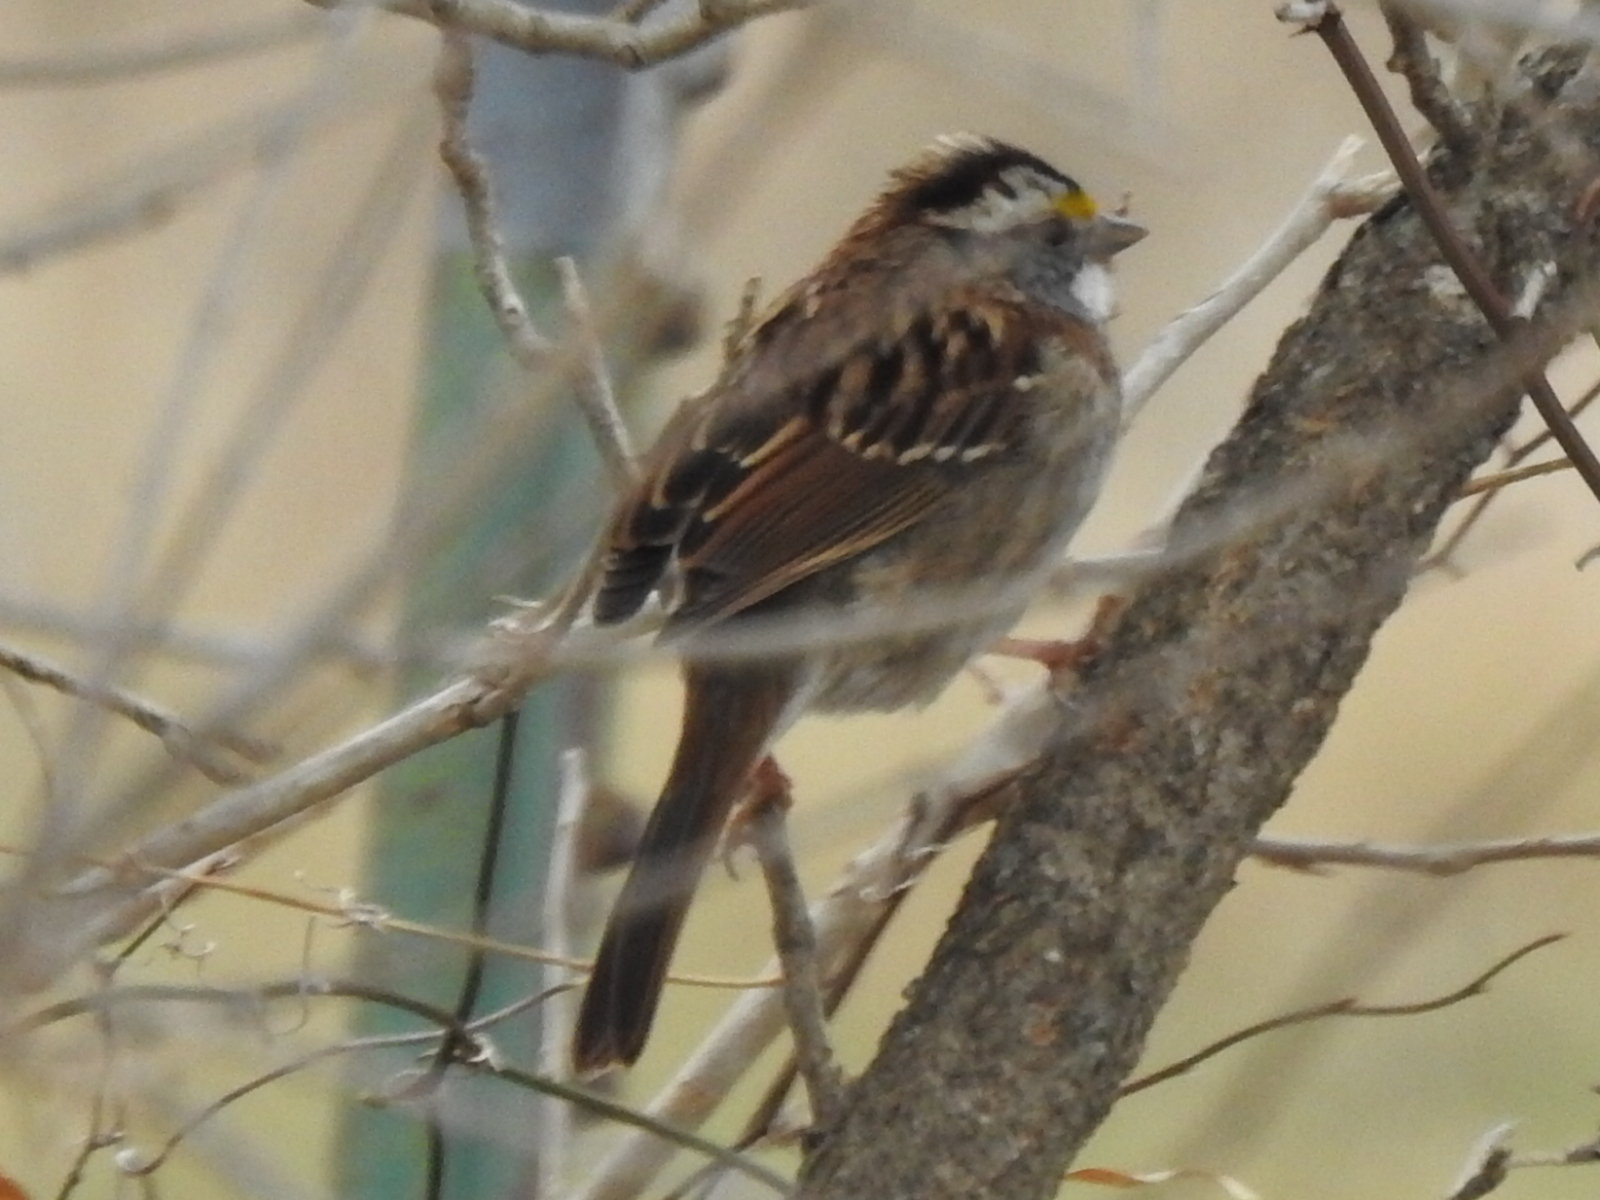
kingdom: Animalia
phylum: Chordata
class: Aves
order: Passeriformes
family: Passerellidae
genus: Zonotrichia
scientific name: Zonotrichia albicollis
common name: White-throated sparrow
